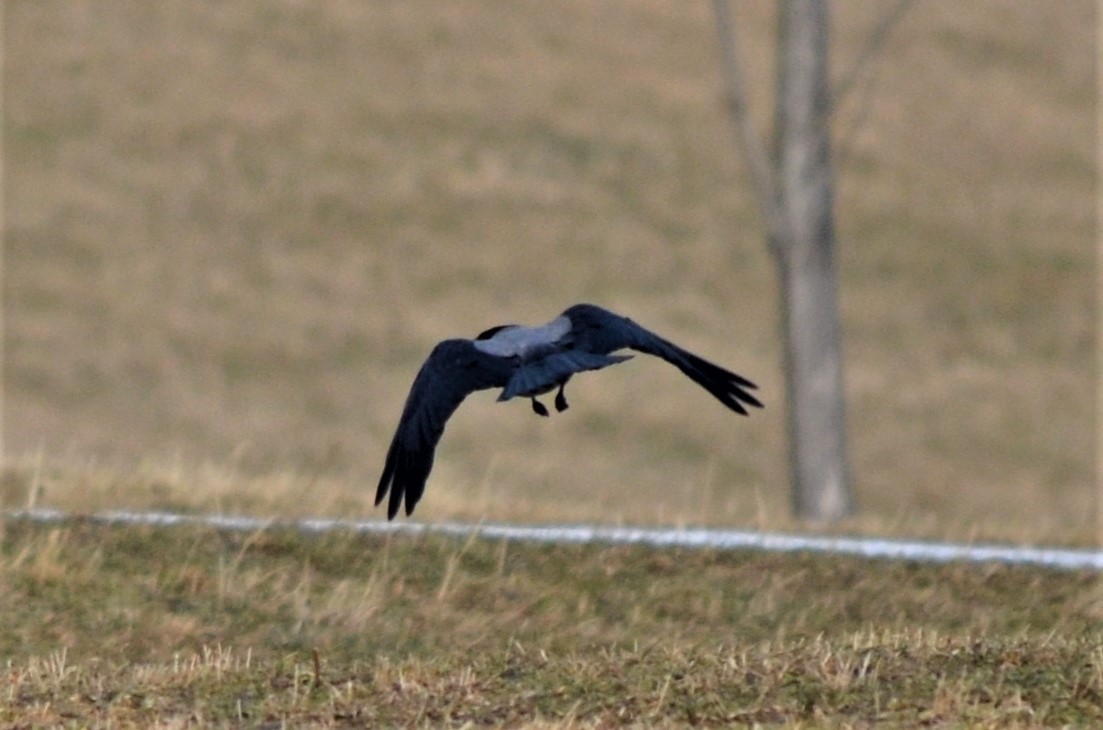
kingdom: Animalia
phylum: Chordata
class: Aves
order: Passeriformes
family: Corvidae
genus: Corvus
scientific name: Corvus cornix
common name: Hooded crow
